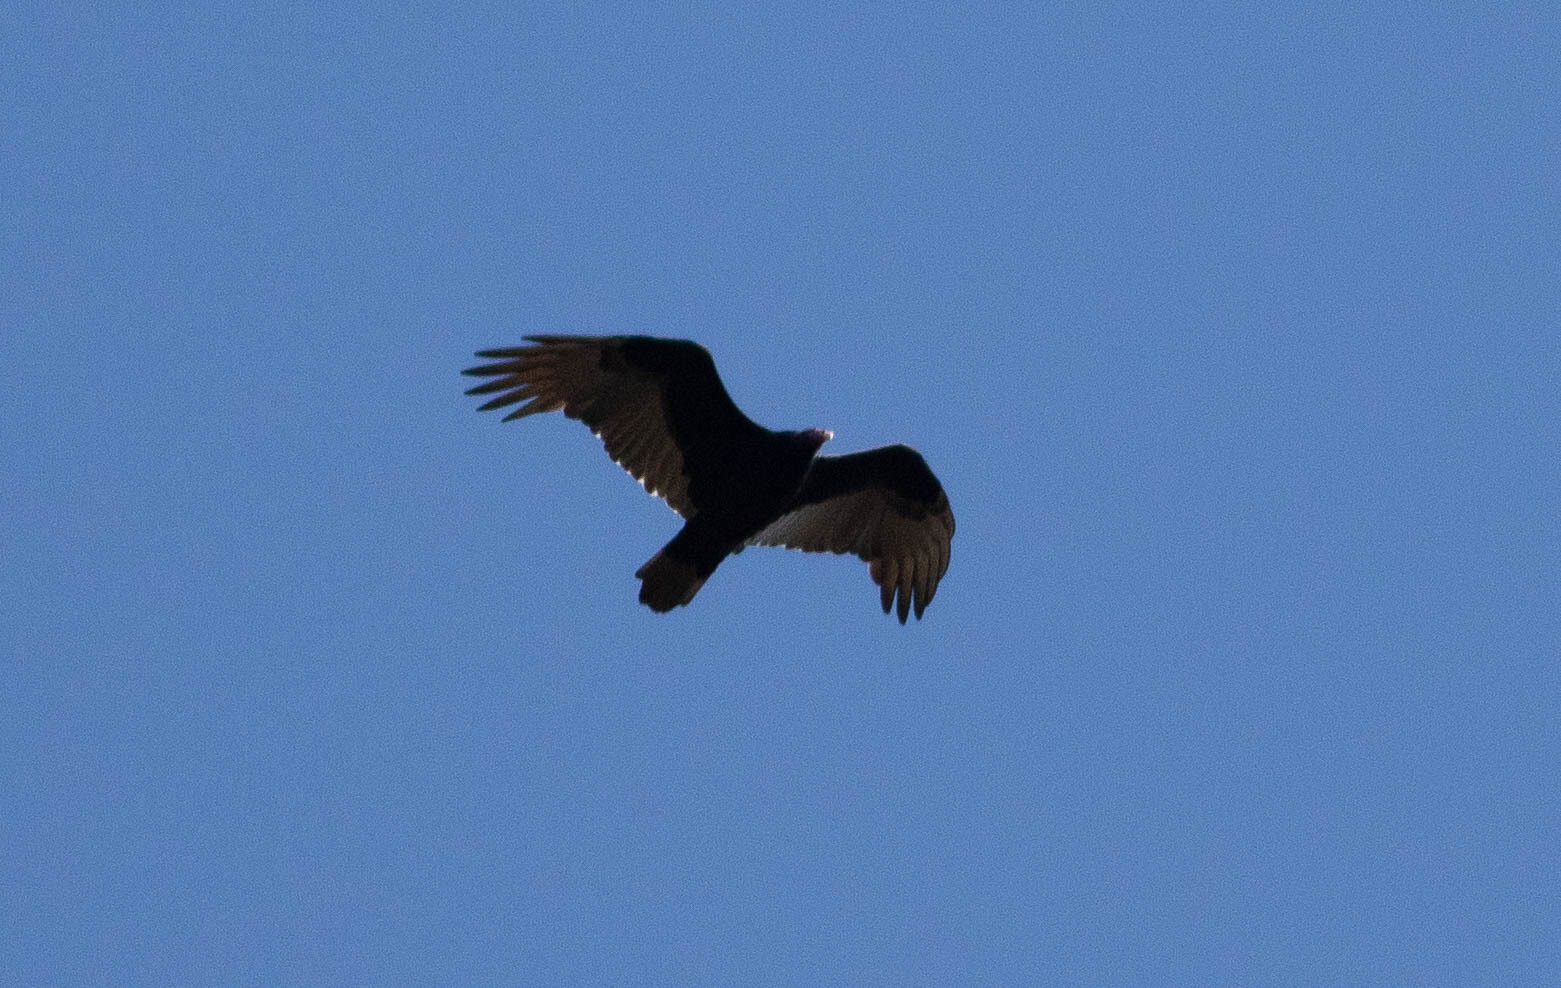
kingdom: Animalia
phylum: Chordata
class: Aves
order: Accipitriformes
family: Cathartidae
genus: Cathartes
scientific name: Cathartes aura
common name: Turkey vulture
